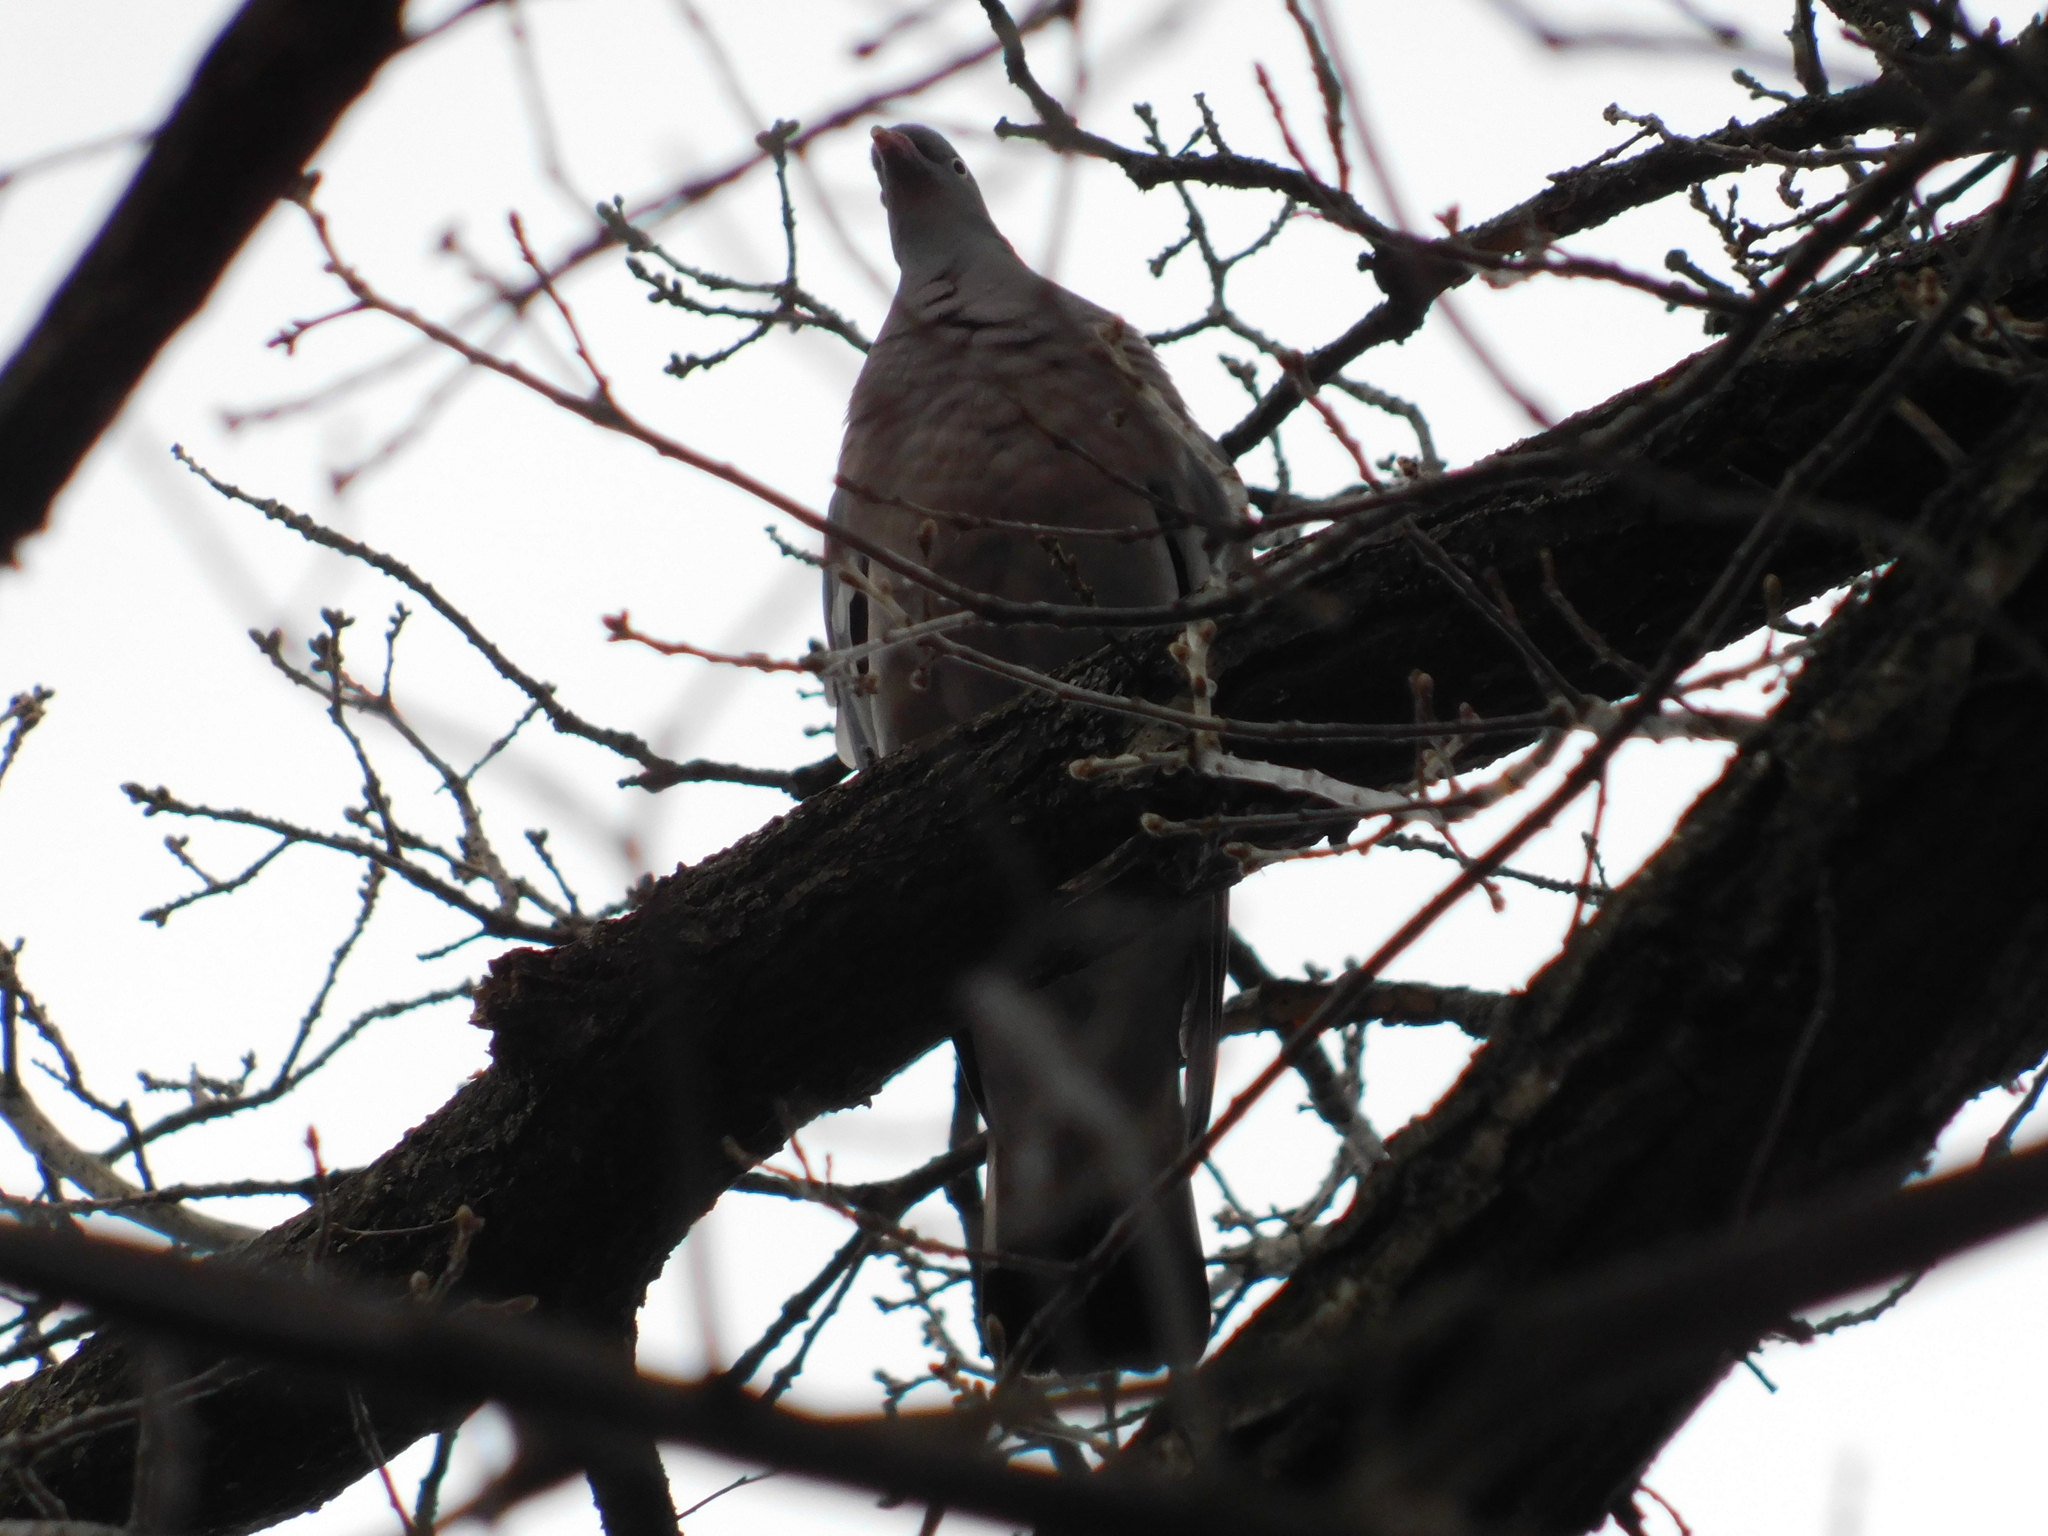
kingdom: Animalia
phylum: Chordata
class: Aves
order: Columbiformes
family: Columbidae
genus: Columba
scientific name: Columba palumbus
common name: Common wood pigeon
